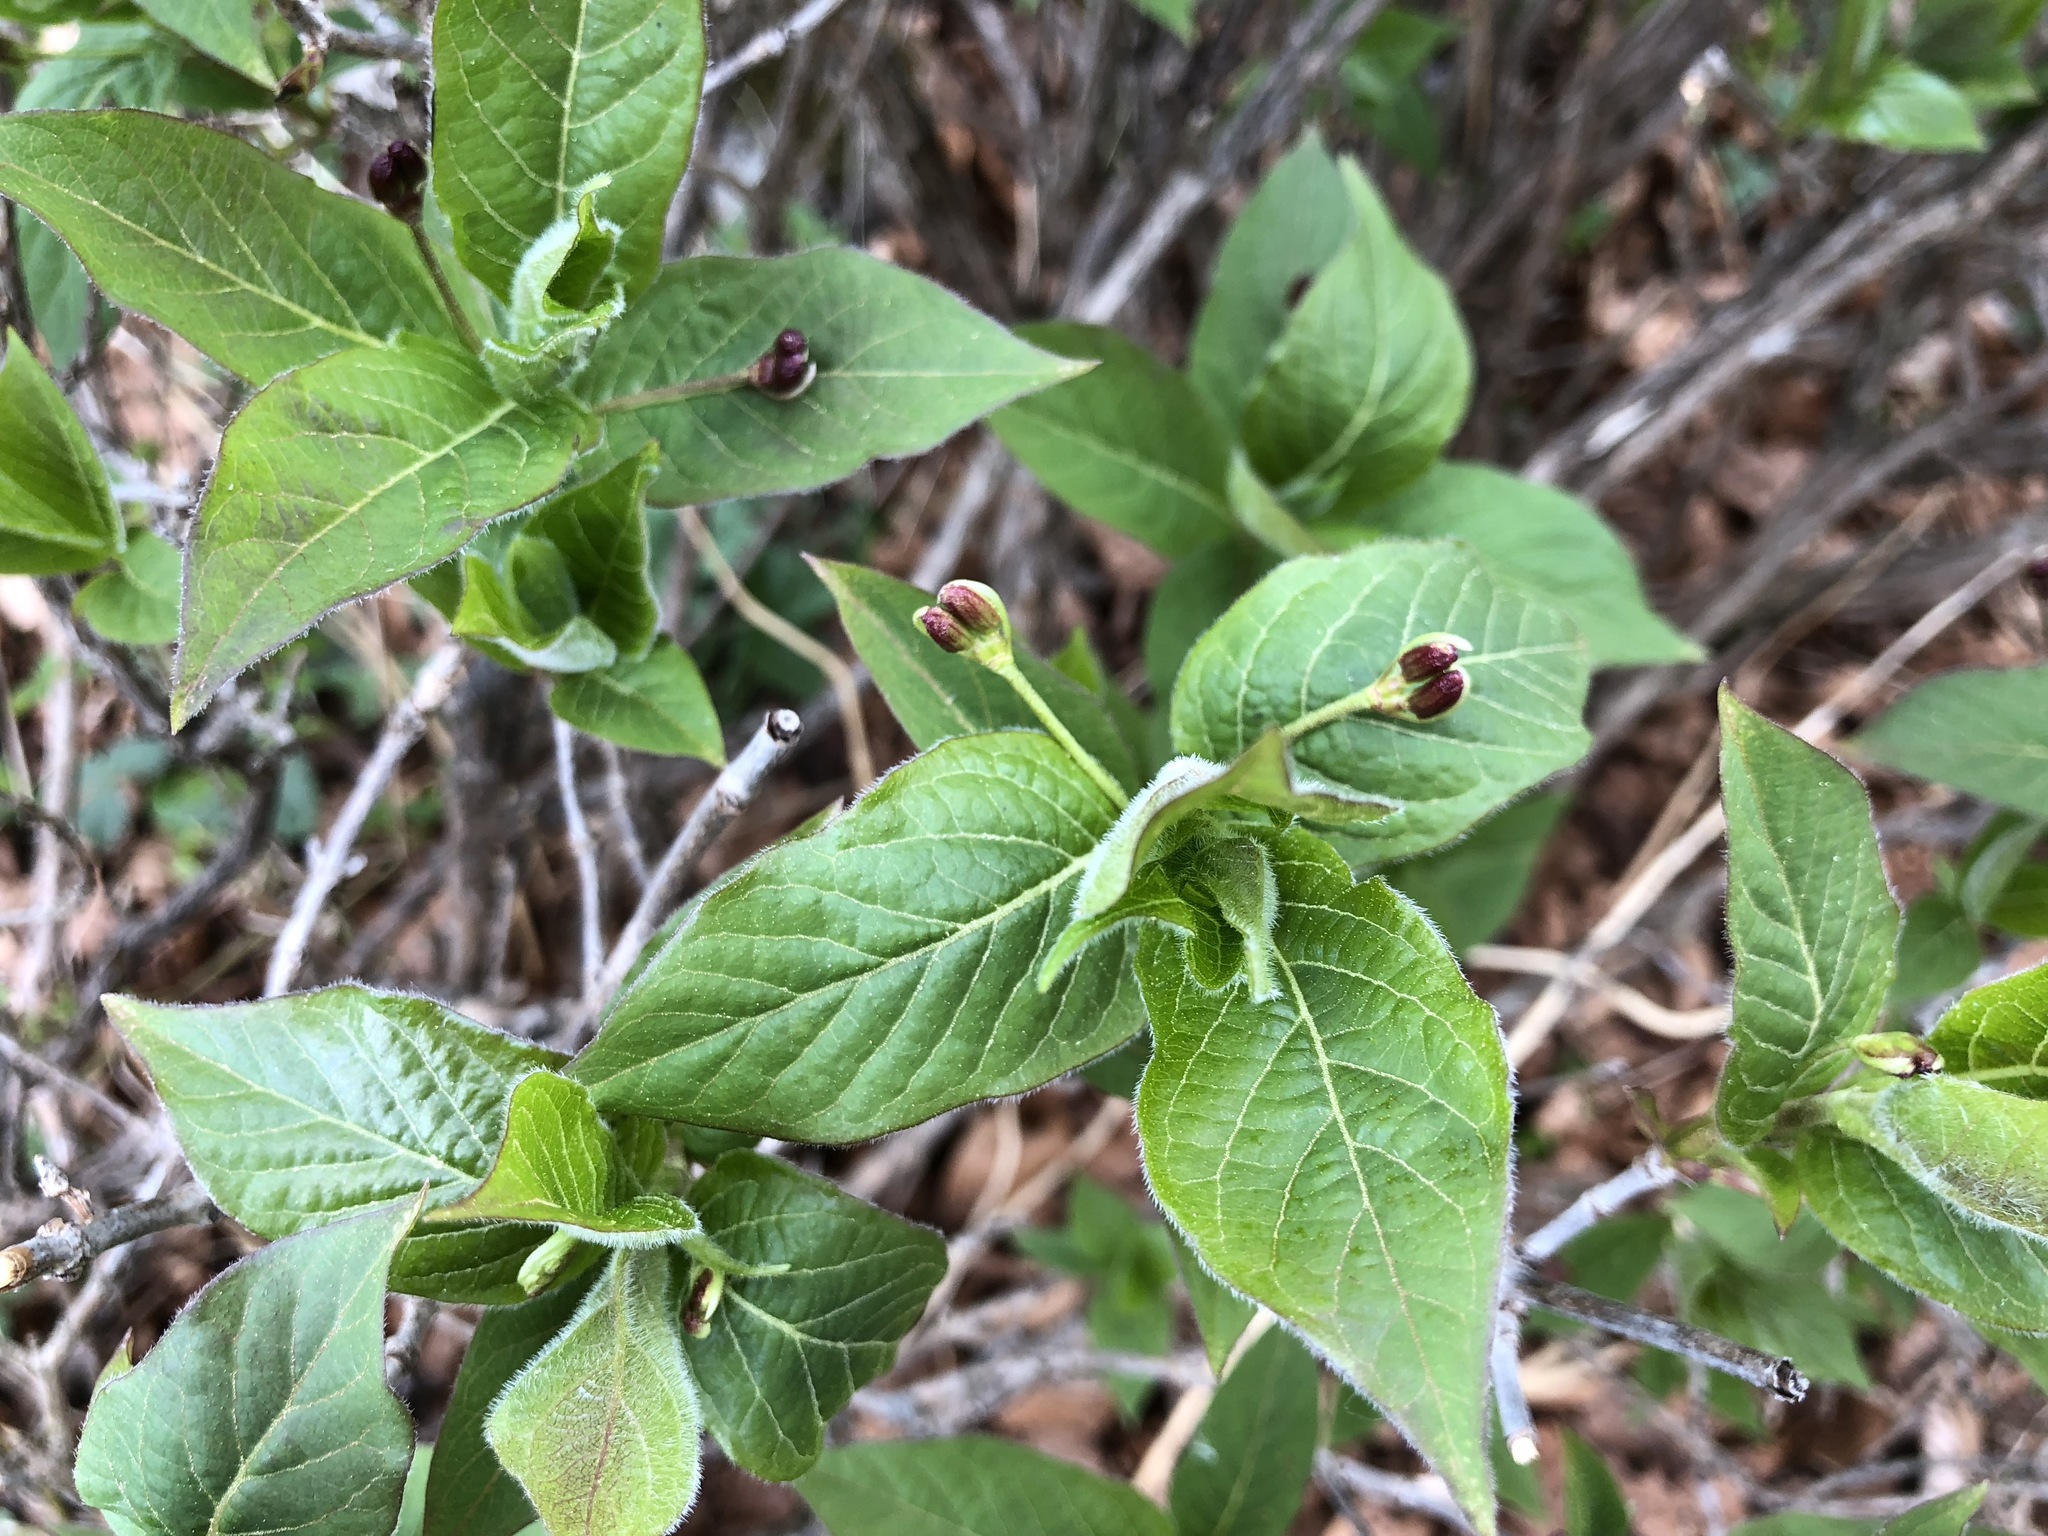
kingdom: Plantae
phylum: Tracheophyta
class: Magnoliopsida
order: Dipsacales
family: Caprifoliaceae
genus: Lonicera
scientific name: Lonicera alpigena
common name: Alpine honeysuckle
